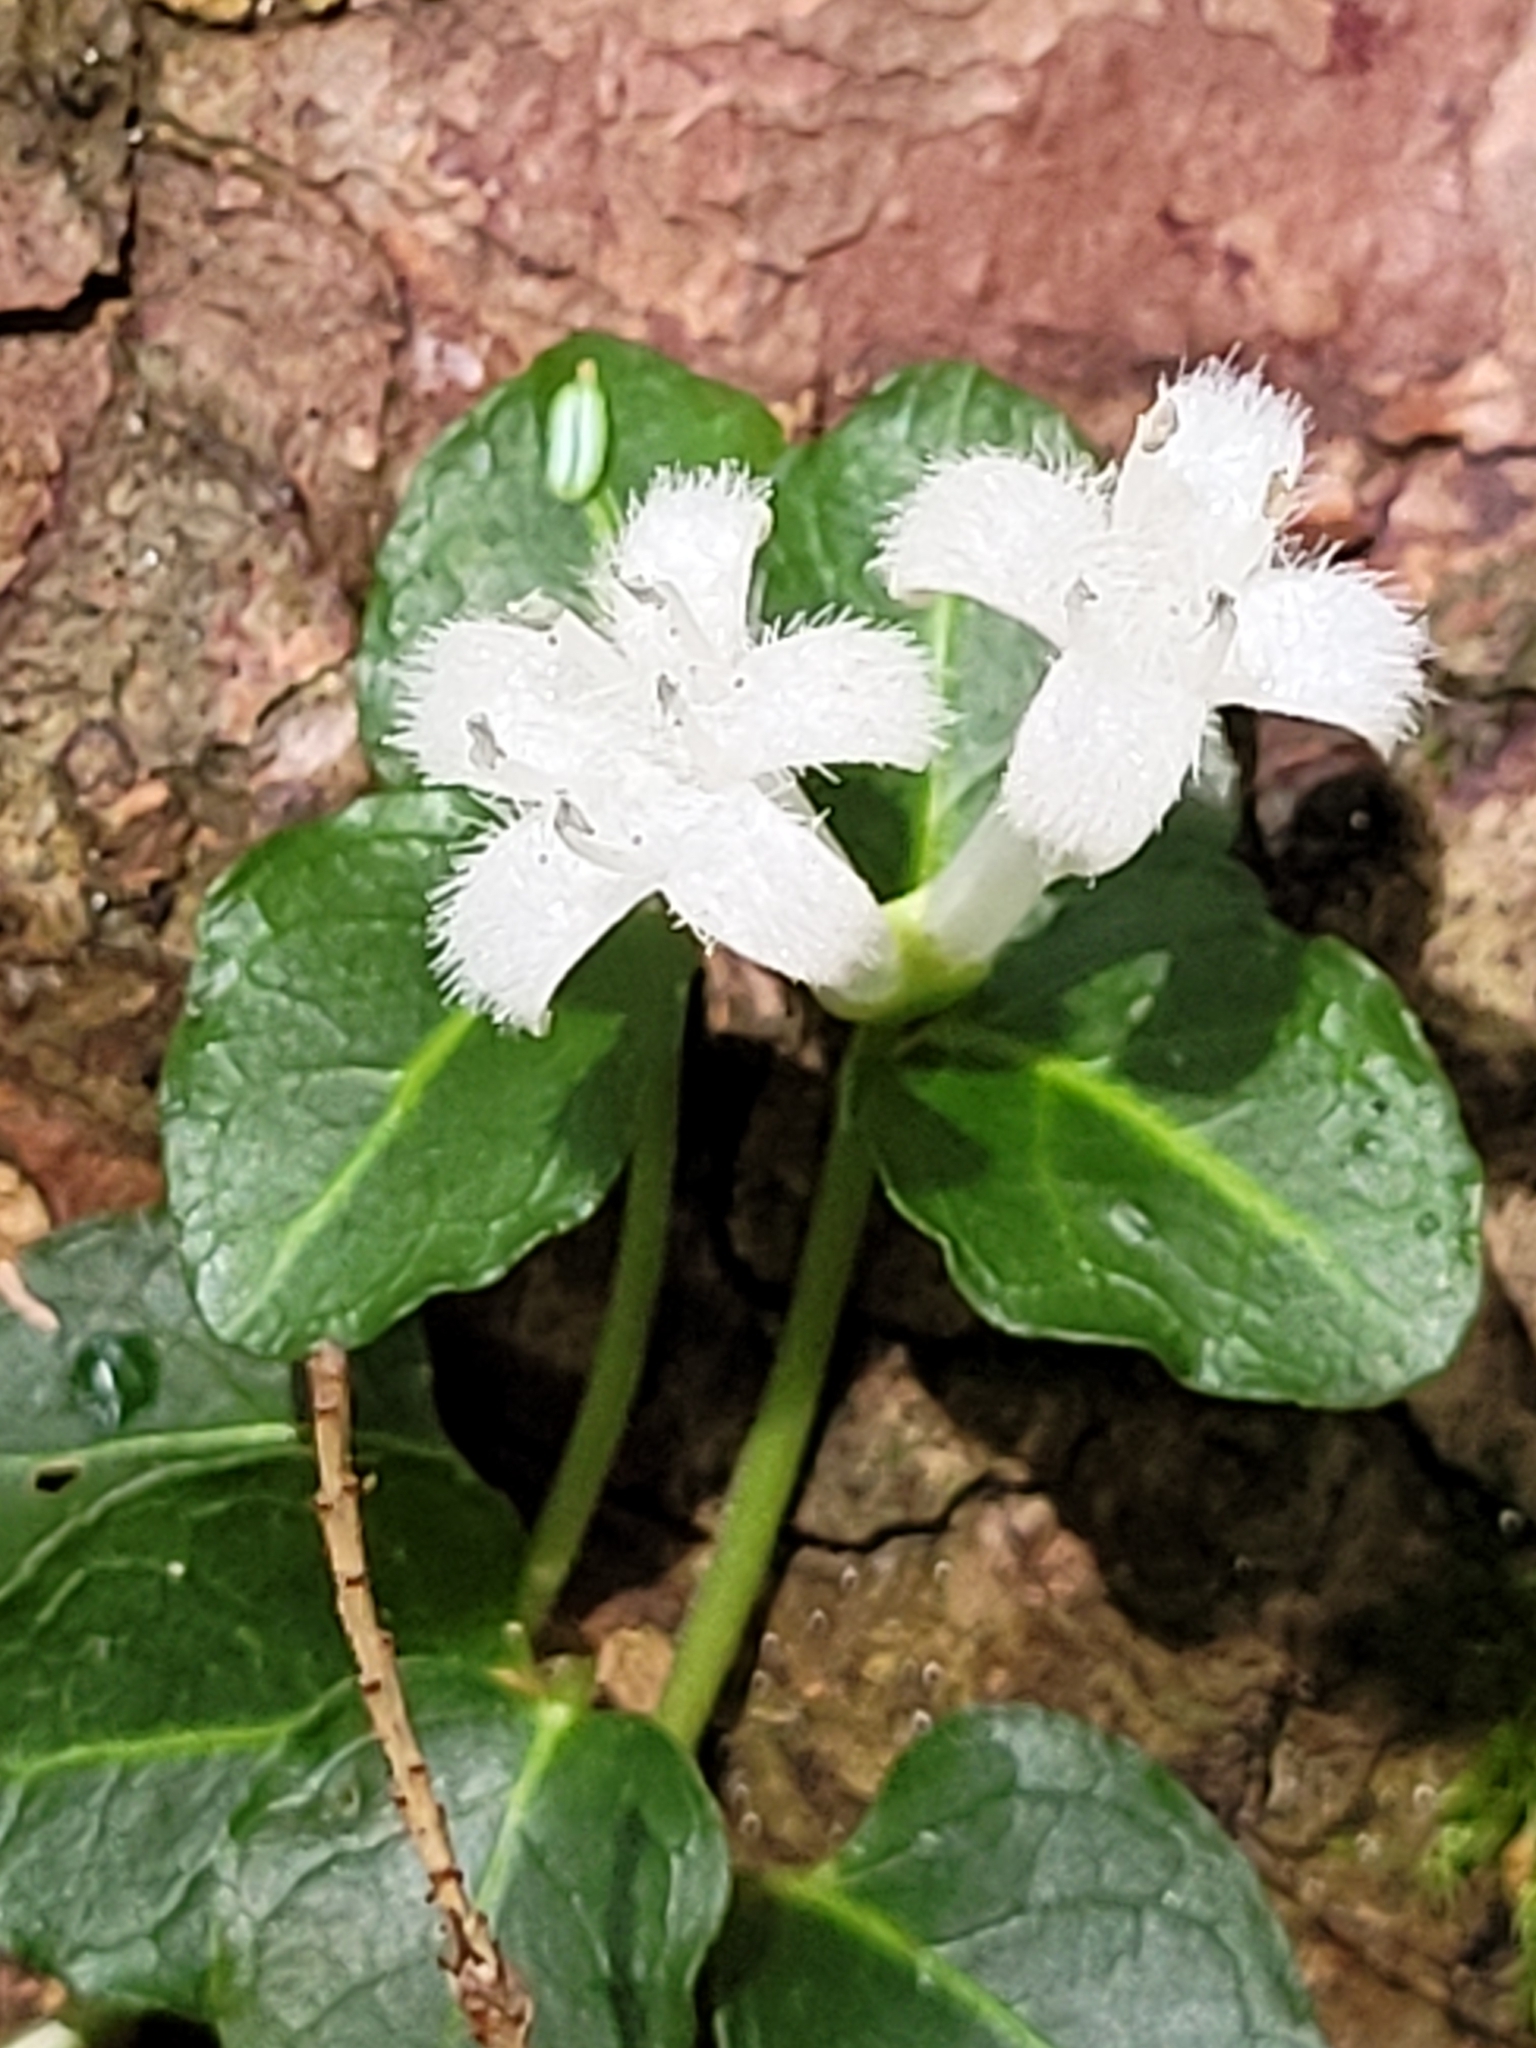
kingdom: Plantae
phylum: Tracheophyta
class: Magnoliopsida
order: Gentianales
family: Rubiaceae
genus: Mitchella
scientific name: Mitchella repens
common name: Partridge-berry
